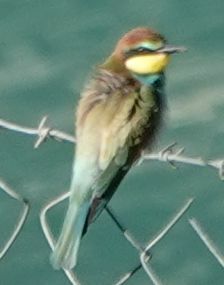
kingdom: Animalia
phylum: Chordata
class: Aves
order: Coraciiformes
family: Meropidae
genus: Merops
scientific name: Merops apiaster
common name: European bee-eater
